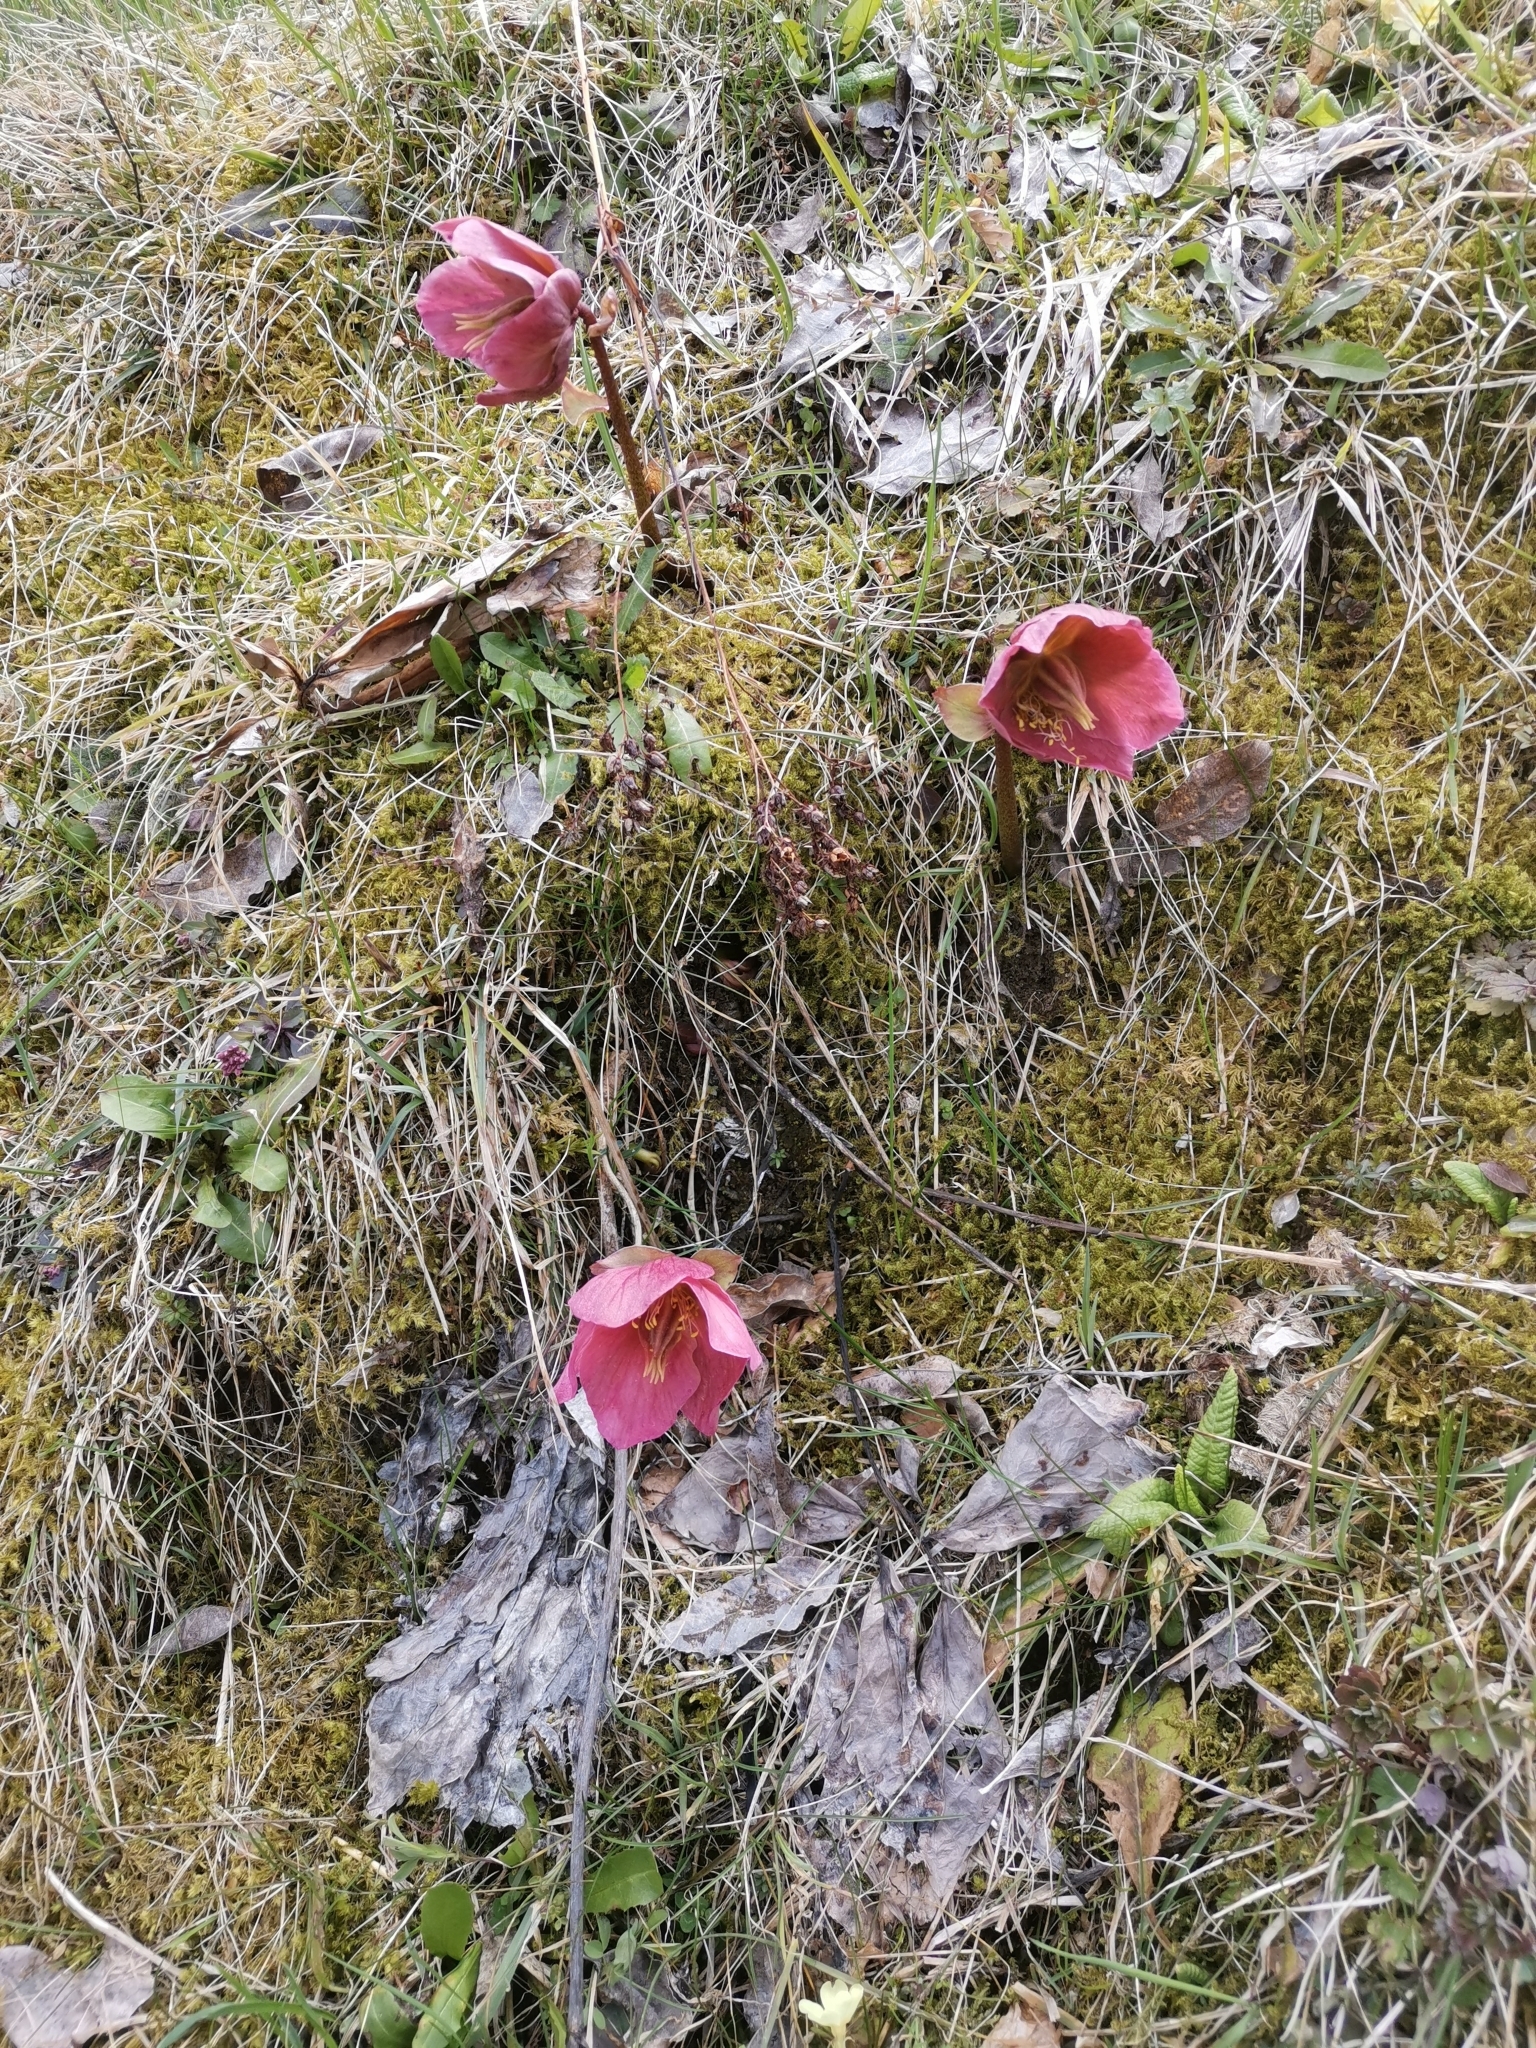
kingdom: Plantae
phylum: Tracheophyta
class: Magnoliopsida
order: Ranunculales
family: Ranunculaceae
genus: Helleborus
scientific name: Helleborus niger
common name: Black hellebore
